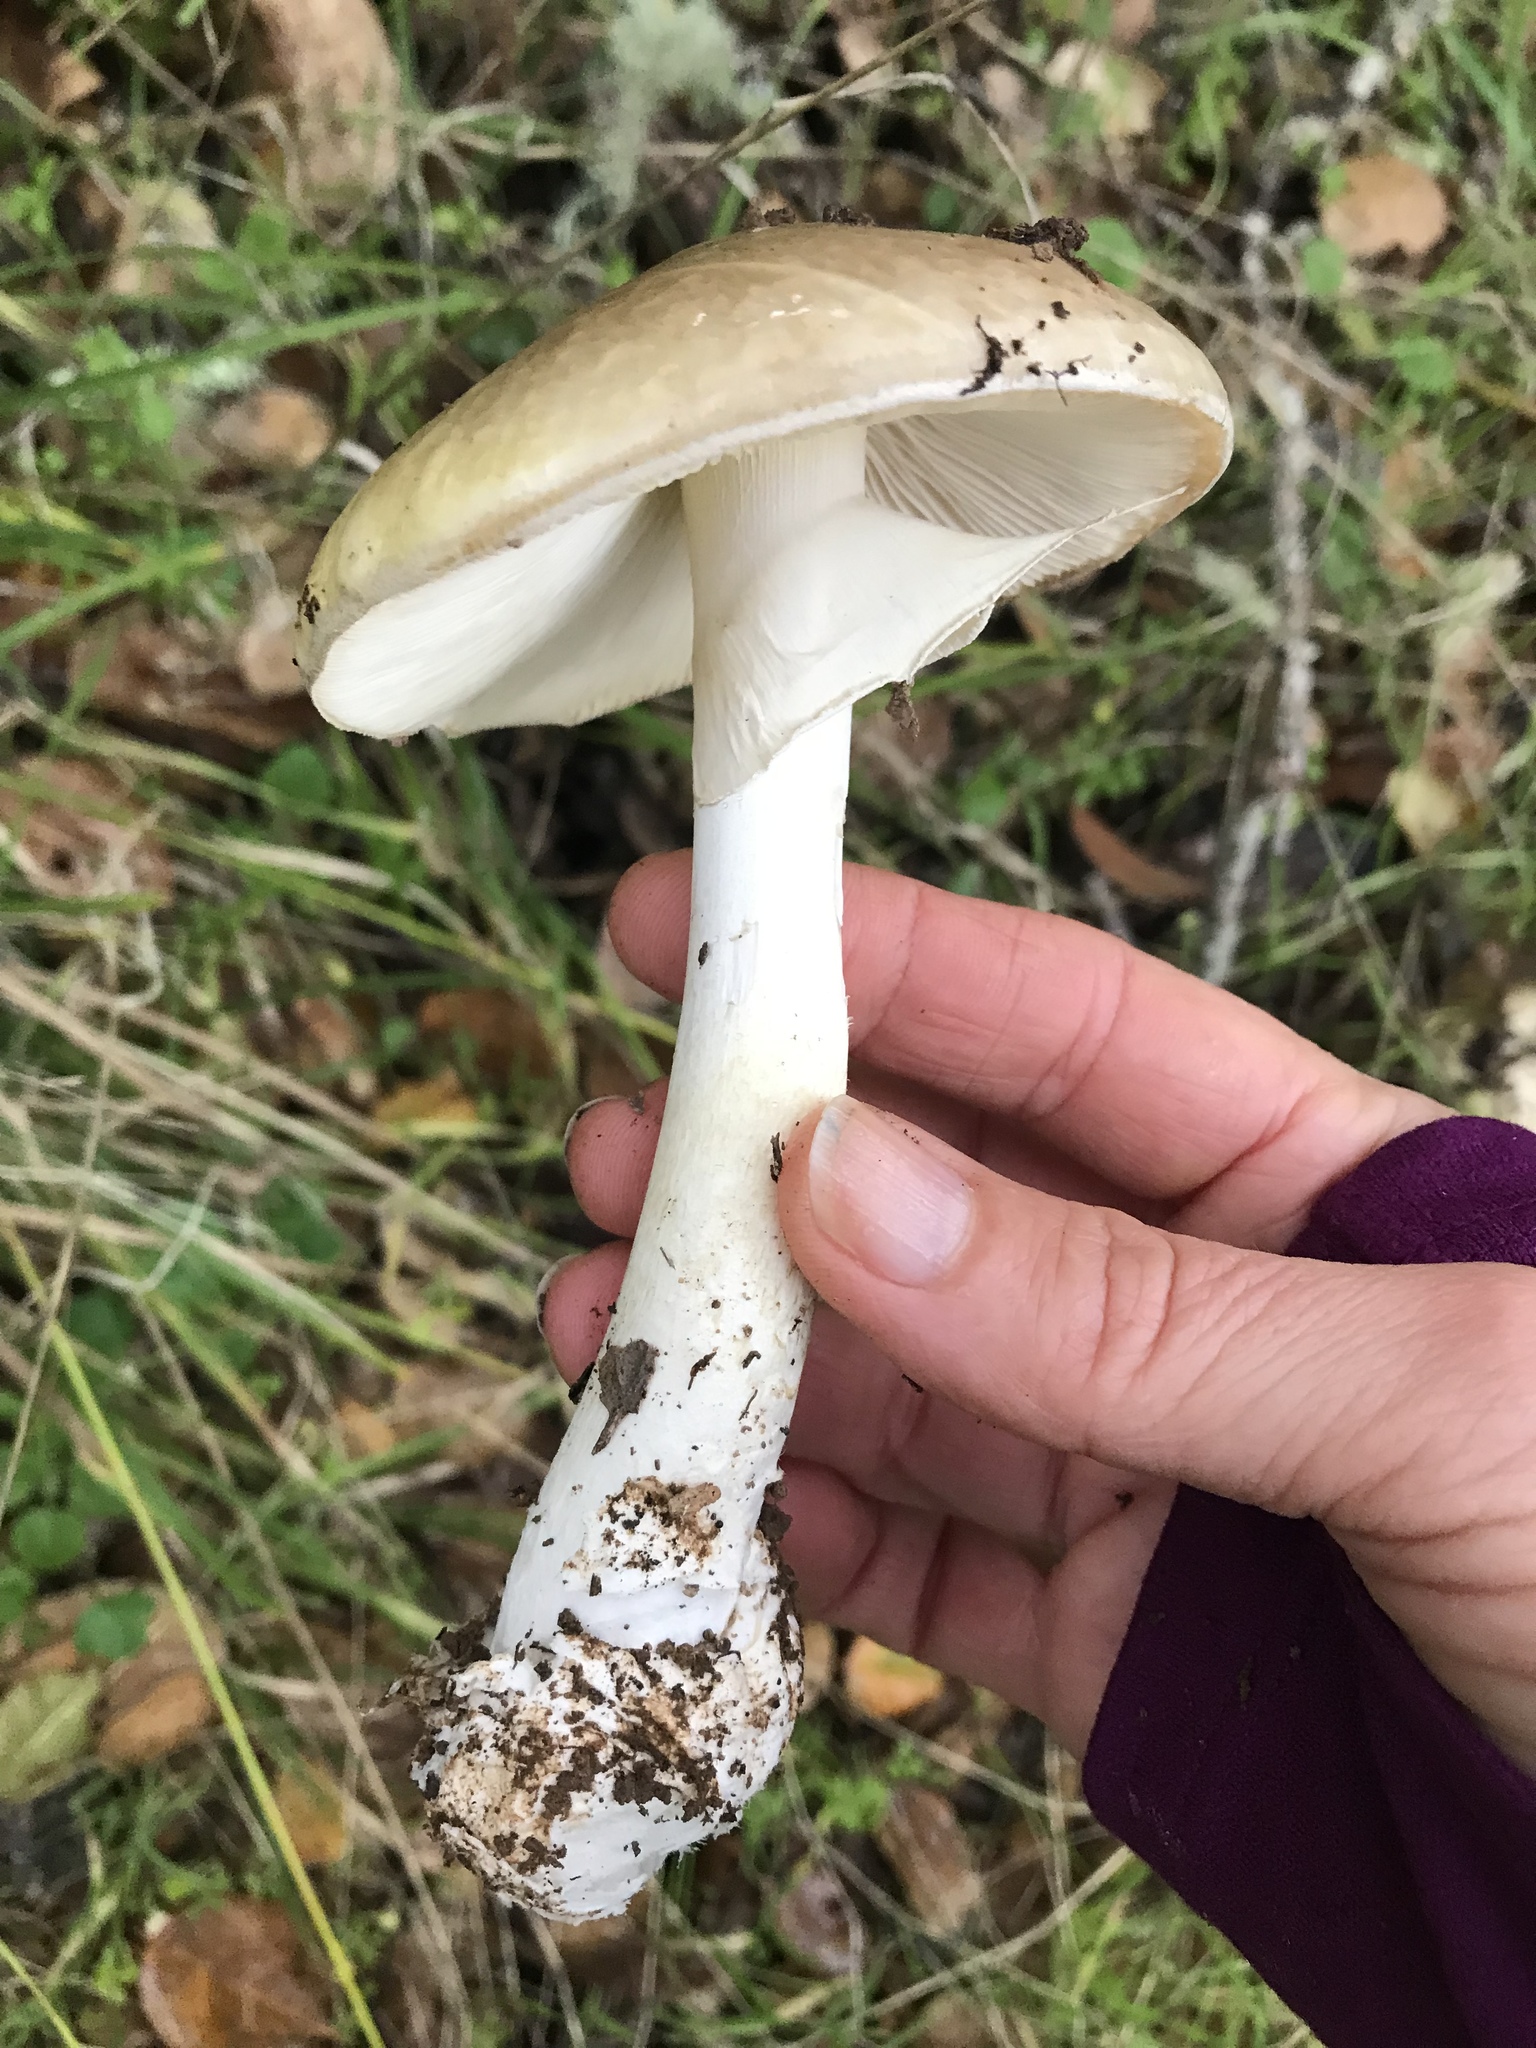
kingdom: Fungi
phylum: Basidiomycota
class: Agaricomycetes
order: Agaricales
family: Amanitaceae
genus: Amanita
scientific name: Amanita phalloides
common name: Death cap
